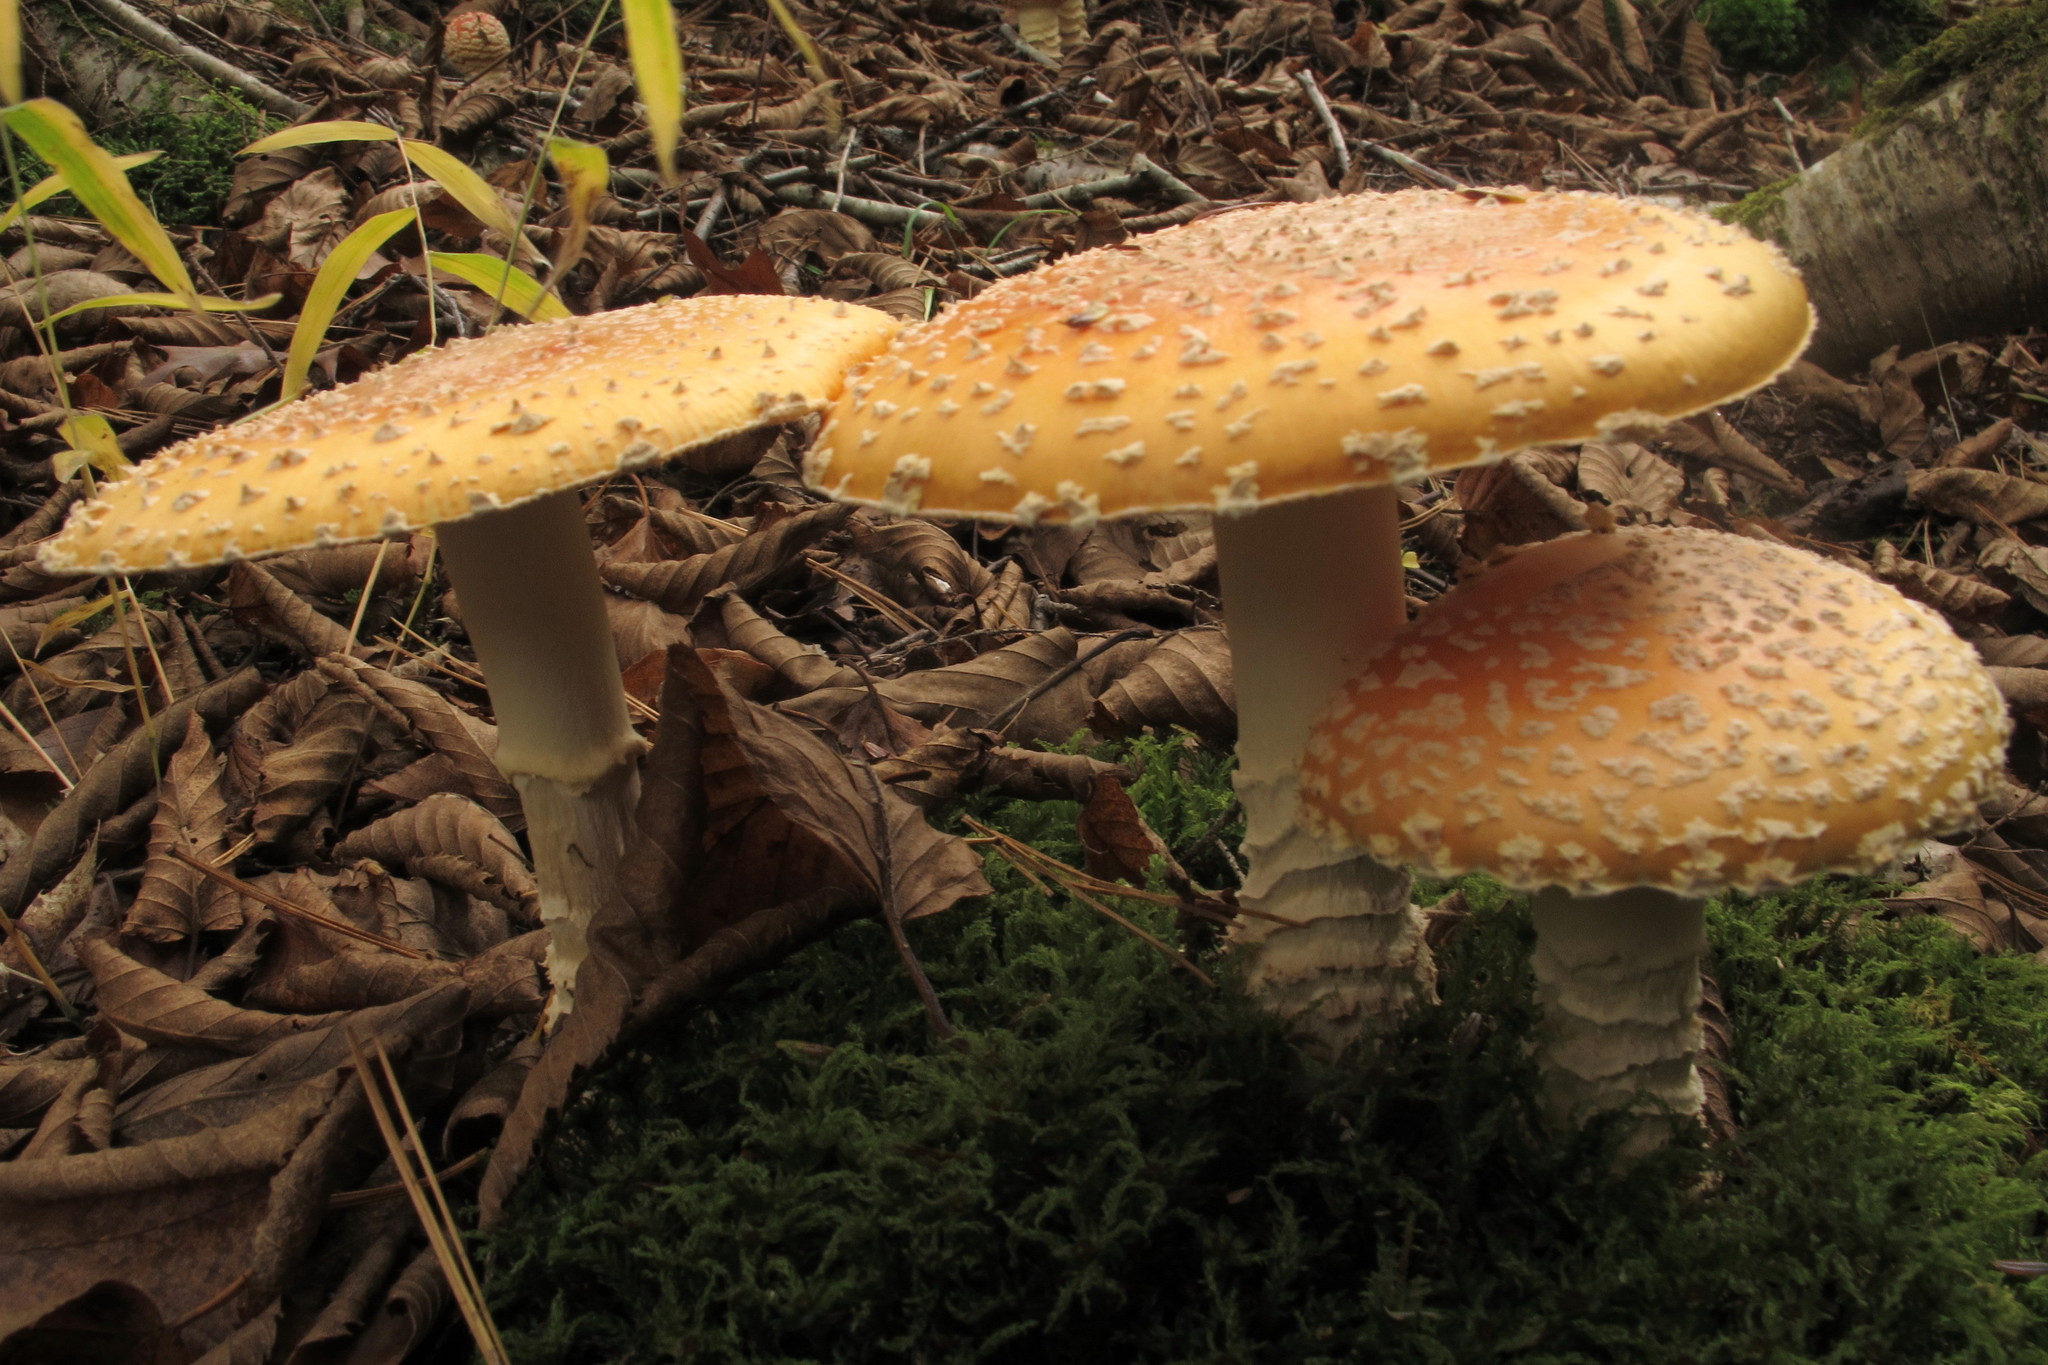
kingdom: Fungi
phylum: Basidiomycota
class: Agaricomycetes
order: Agaricales
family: Amanitaceae
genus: Amanita
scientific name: Amanita muscaria
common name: Fly agaric
